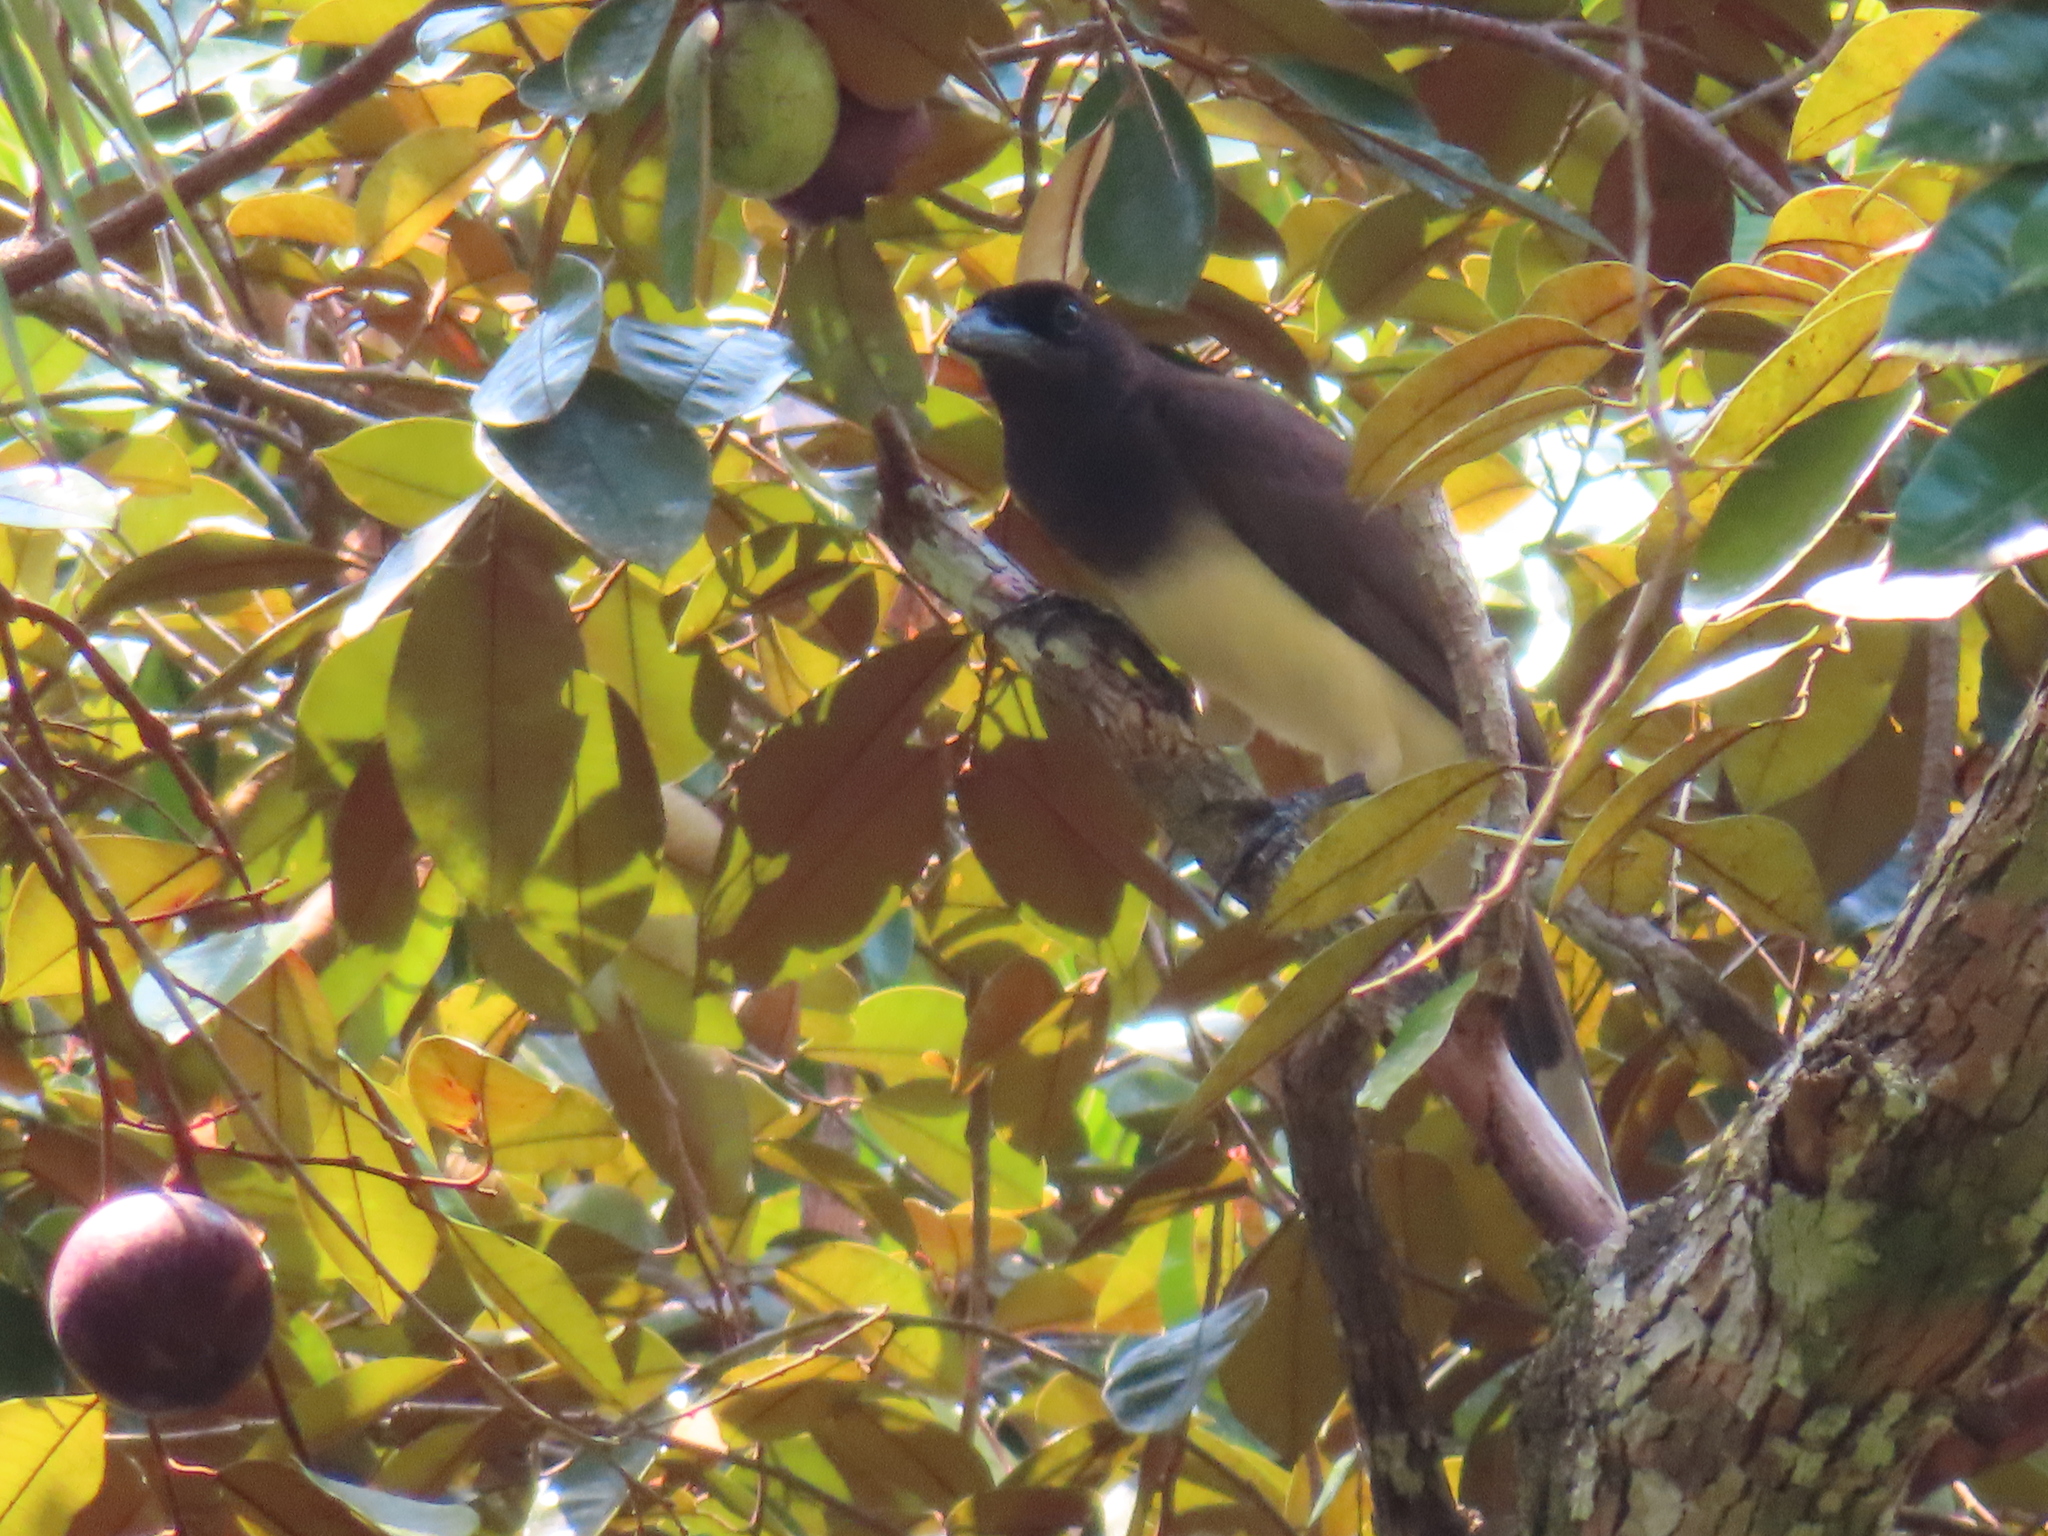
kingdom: Animalia
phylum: Chordata
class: Aves
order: Passeriformes
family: Corvidae
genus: Psilorhinus
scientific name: Psilorhinus morio
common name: Brown jay
